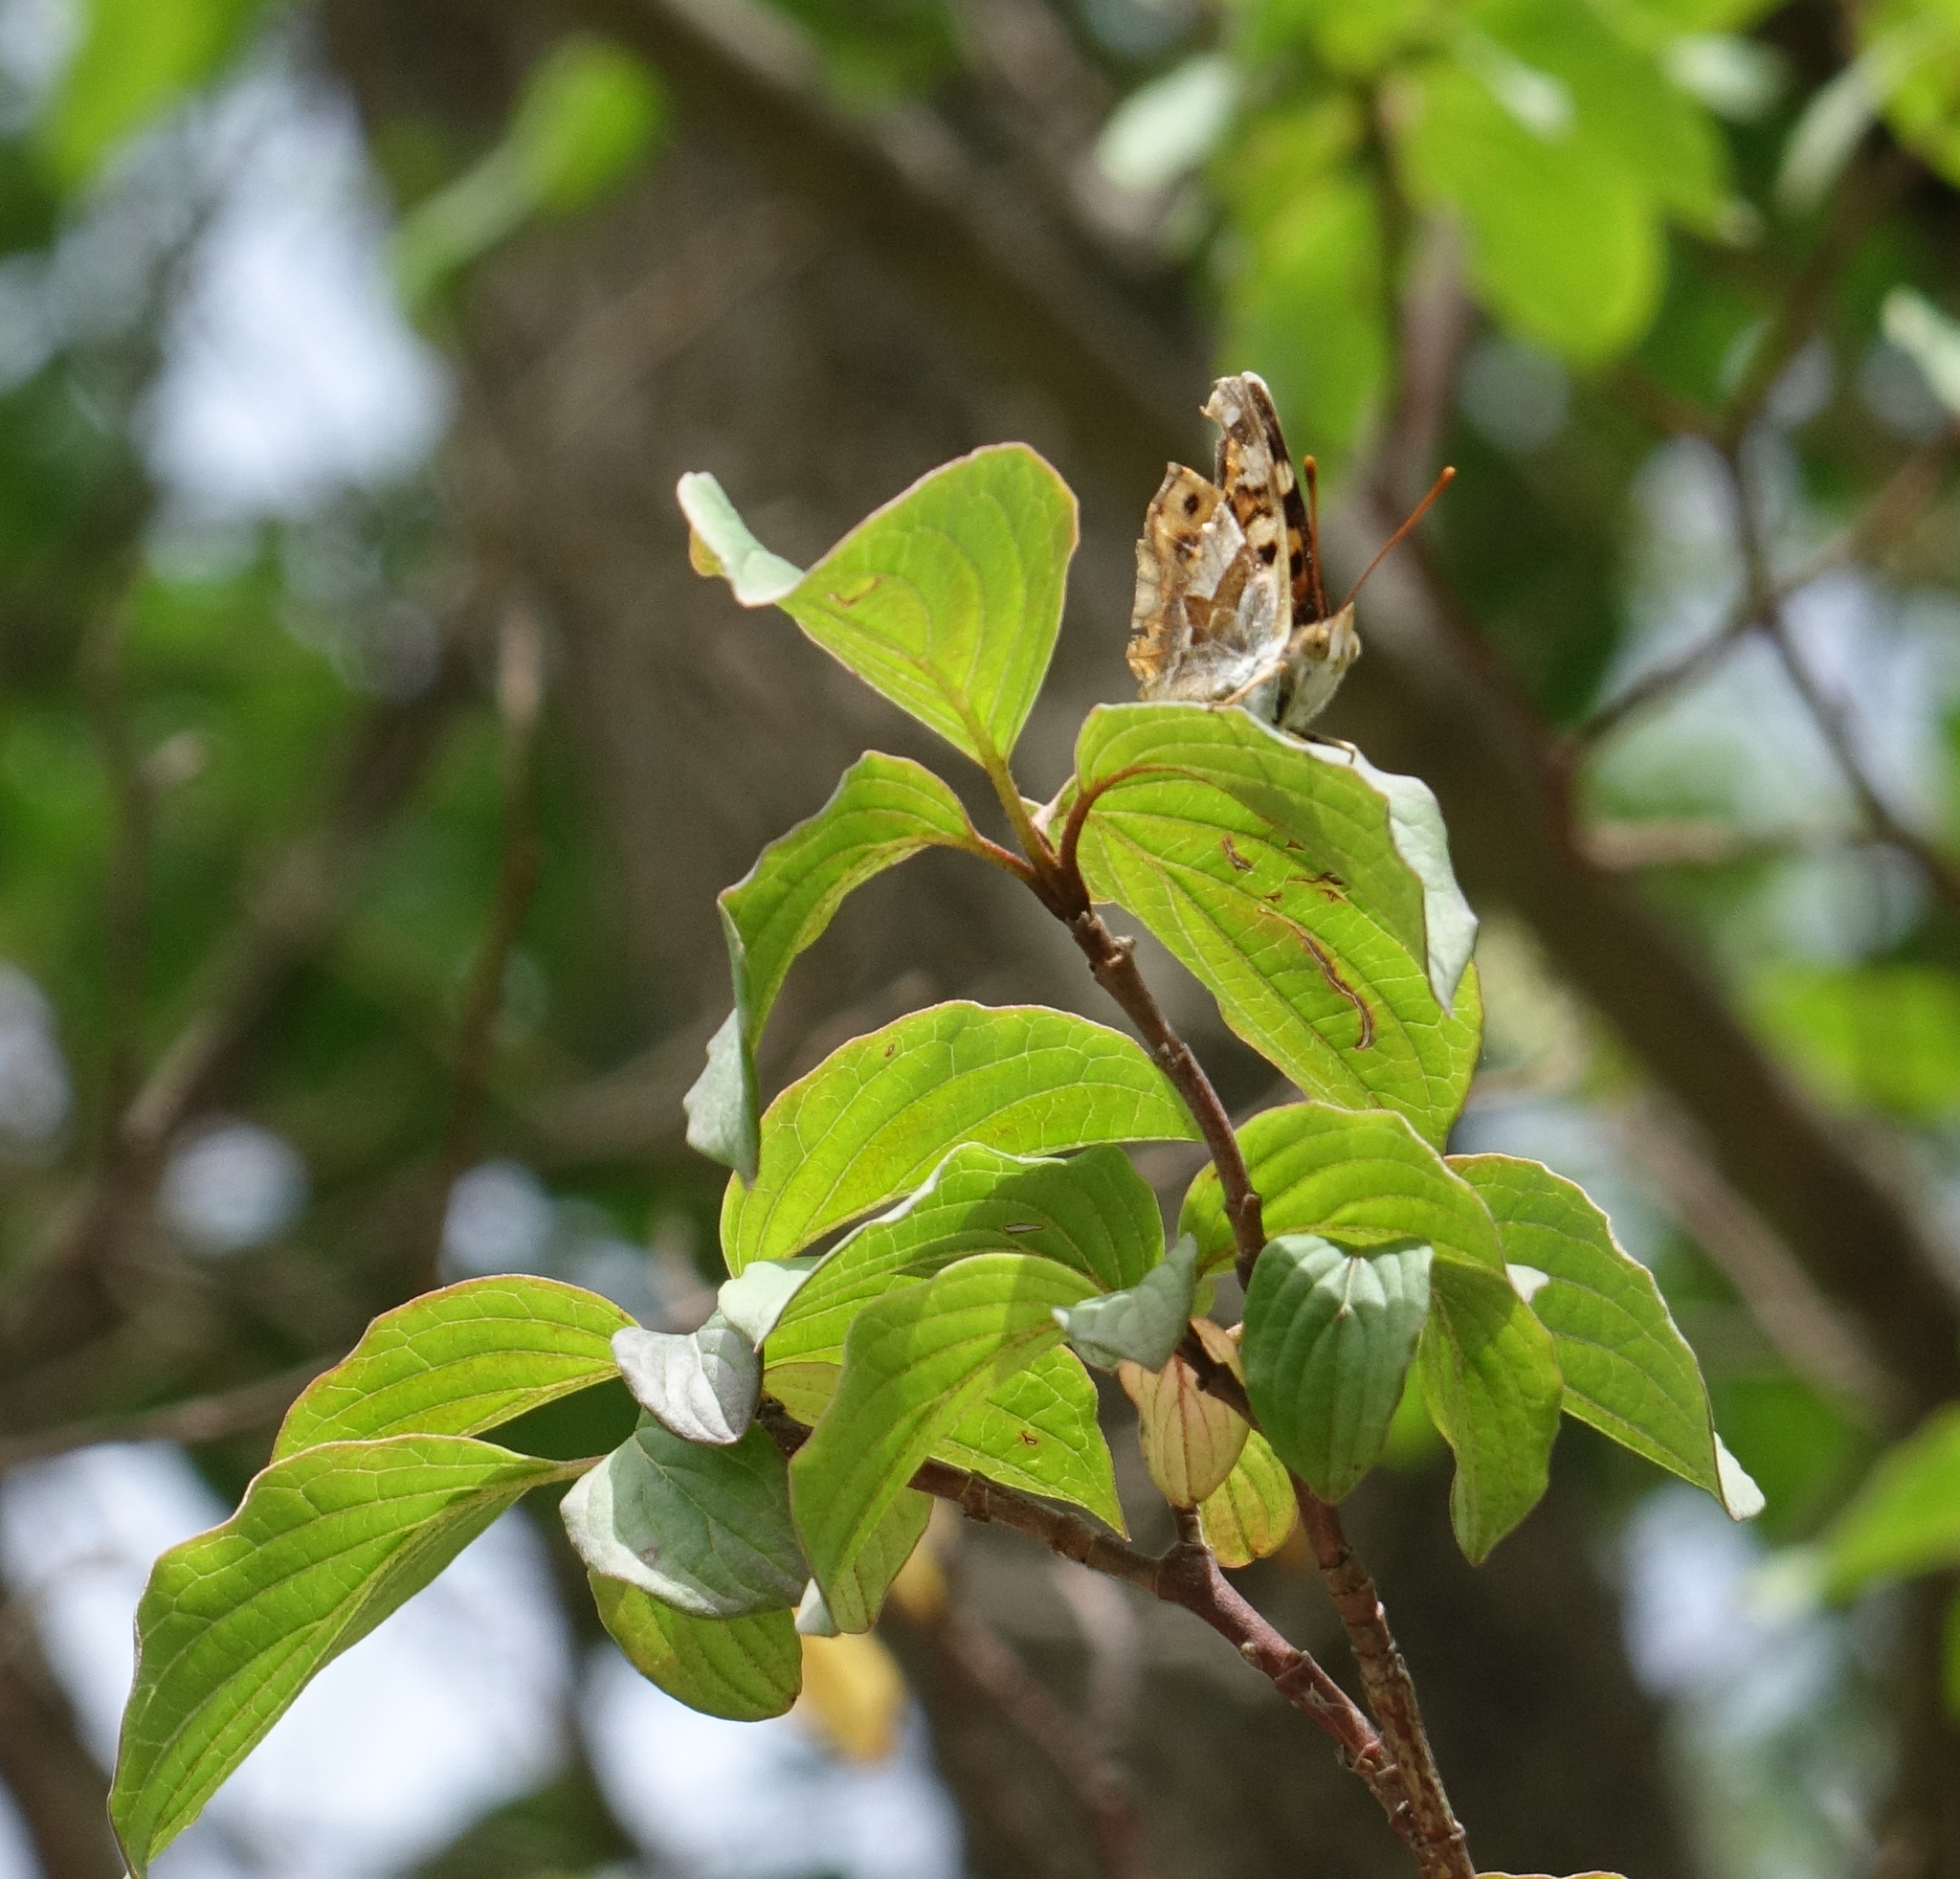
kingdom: Animalia
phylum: Arthropoda
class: Insecta
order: Lepidoptera
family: Nymphalidae
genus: Thaleropis
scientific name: Thaleropis ionia
